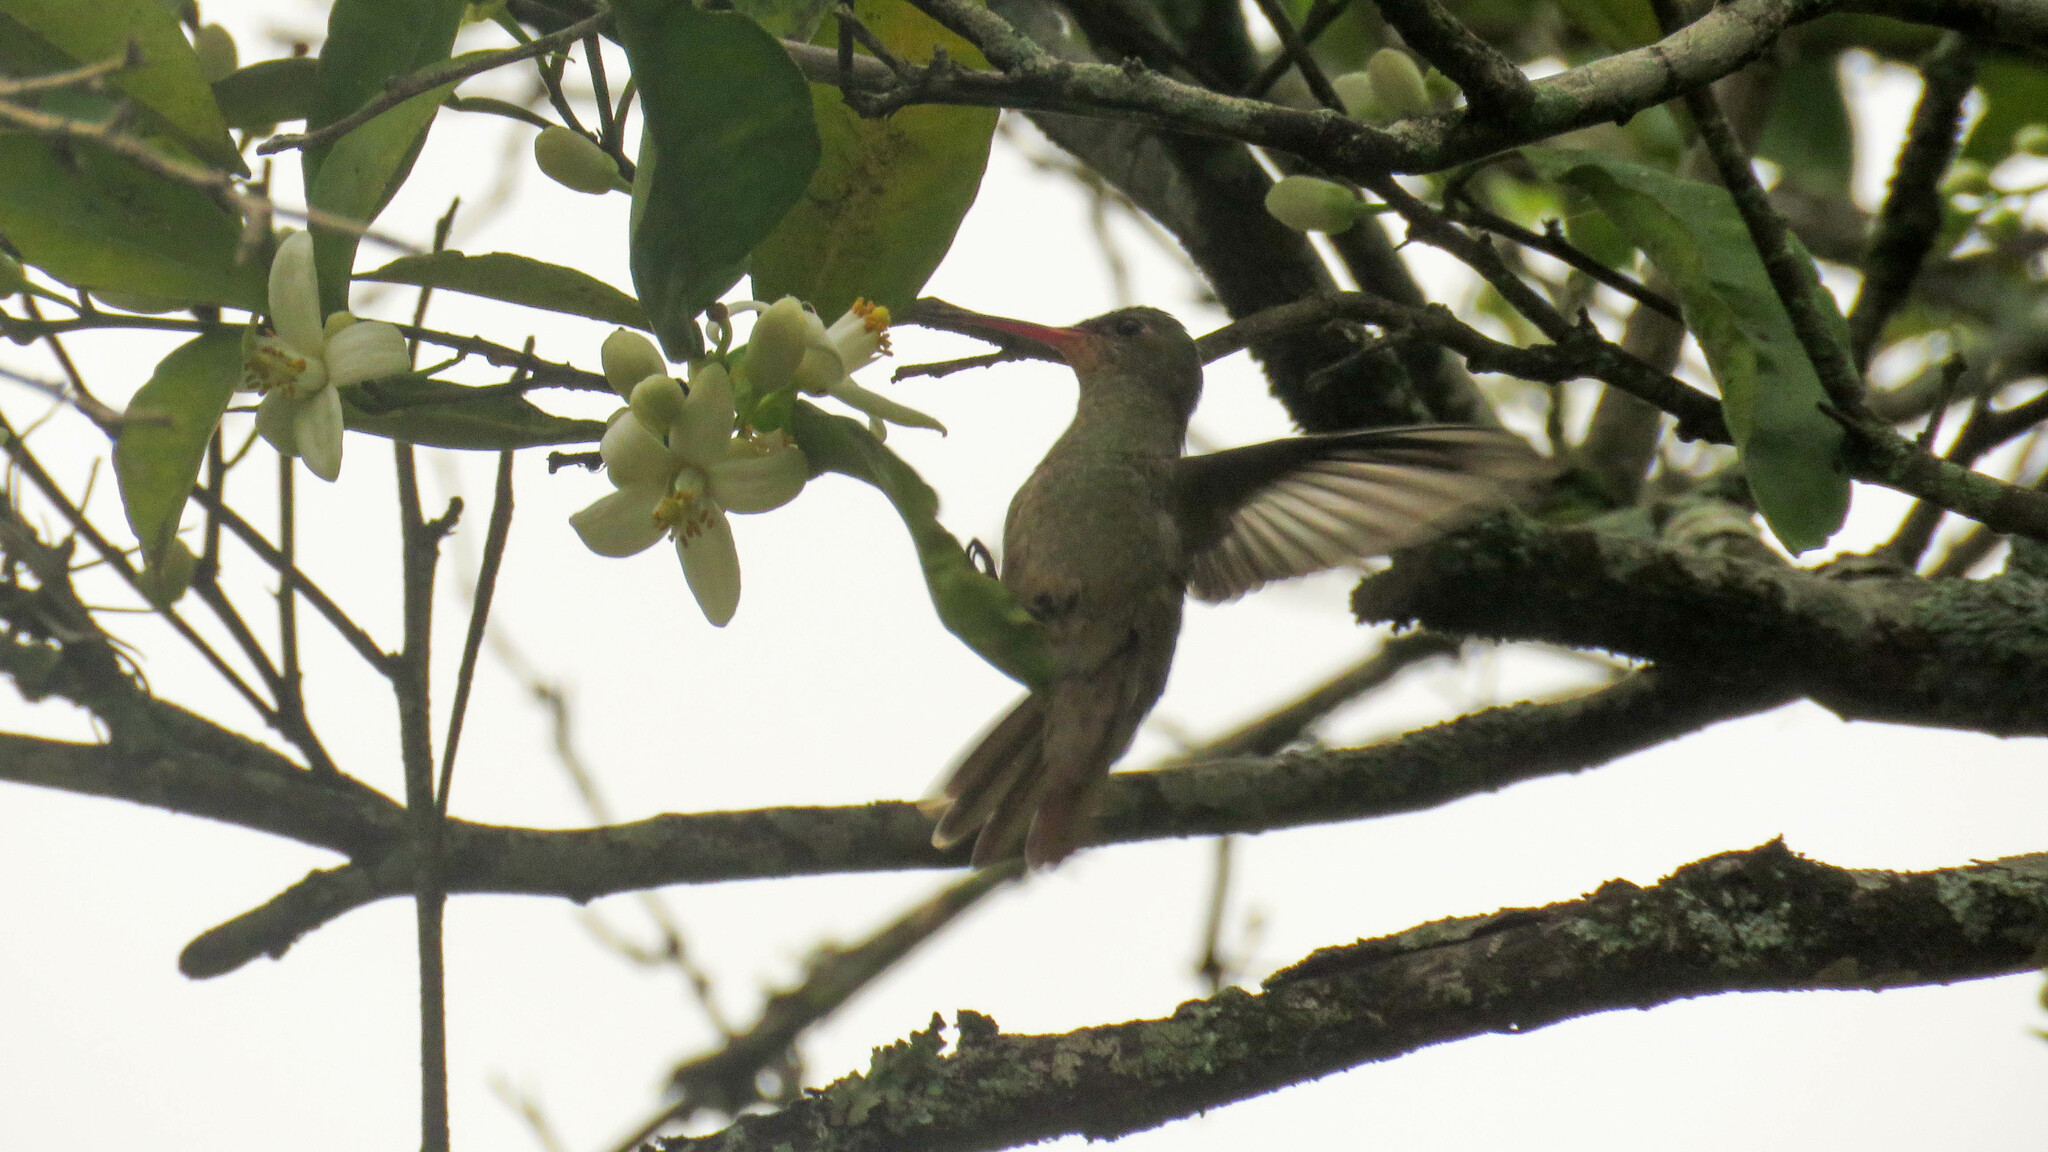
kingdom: Animalia
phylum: Chordata
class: Aves
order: Apodiformes
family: Trochilidae
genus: Hylocharis
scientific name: Hylocharis chrysura
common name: Gilded sapphire
